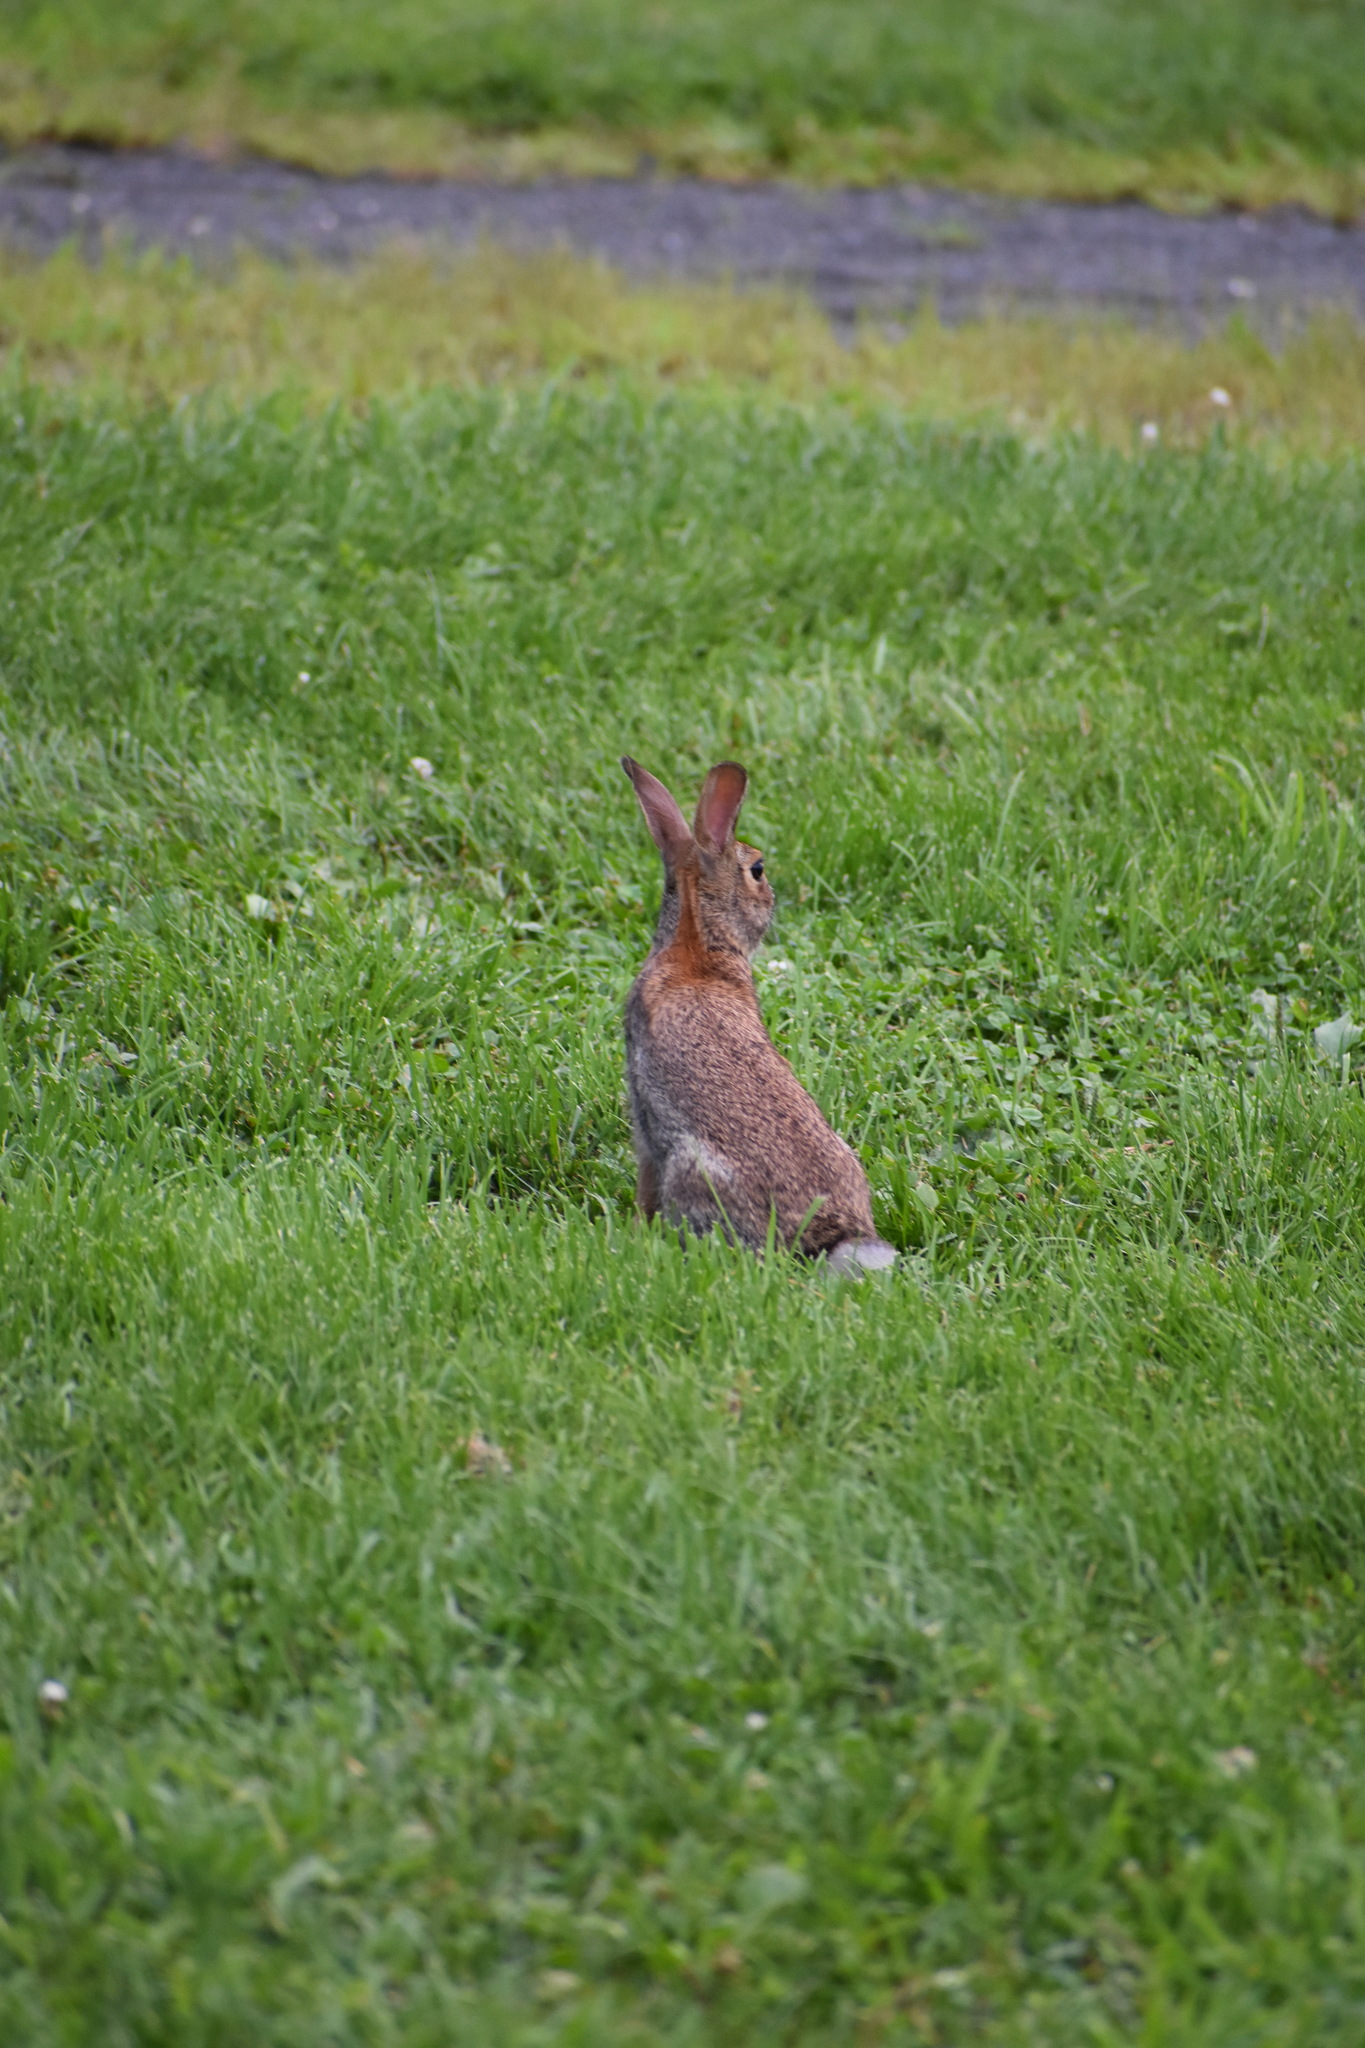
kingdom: Animalia
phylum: Chordata
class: Mammalia
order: Lagomorpha
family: Leporidae
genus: Sylvilagus
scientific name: Sylvilagus floridanus
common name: Eastern cottontail
